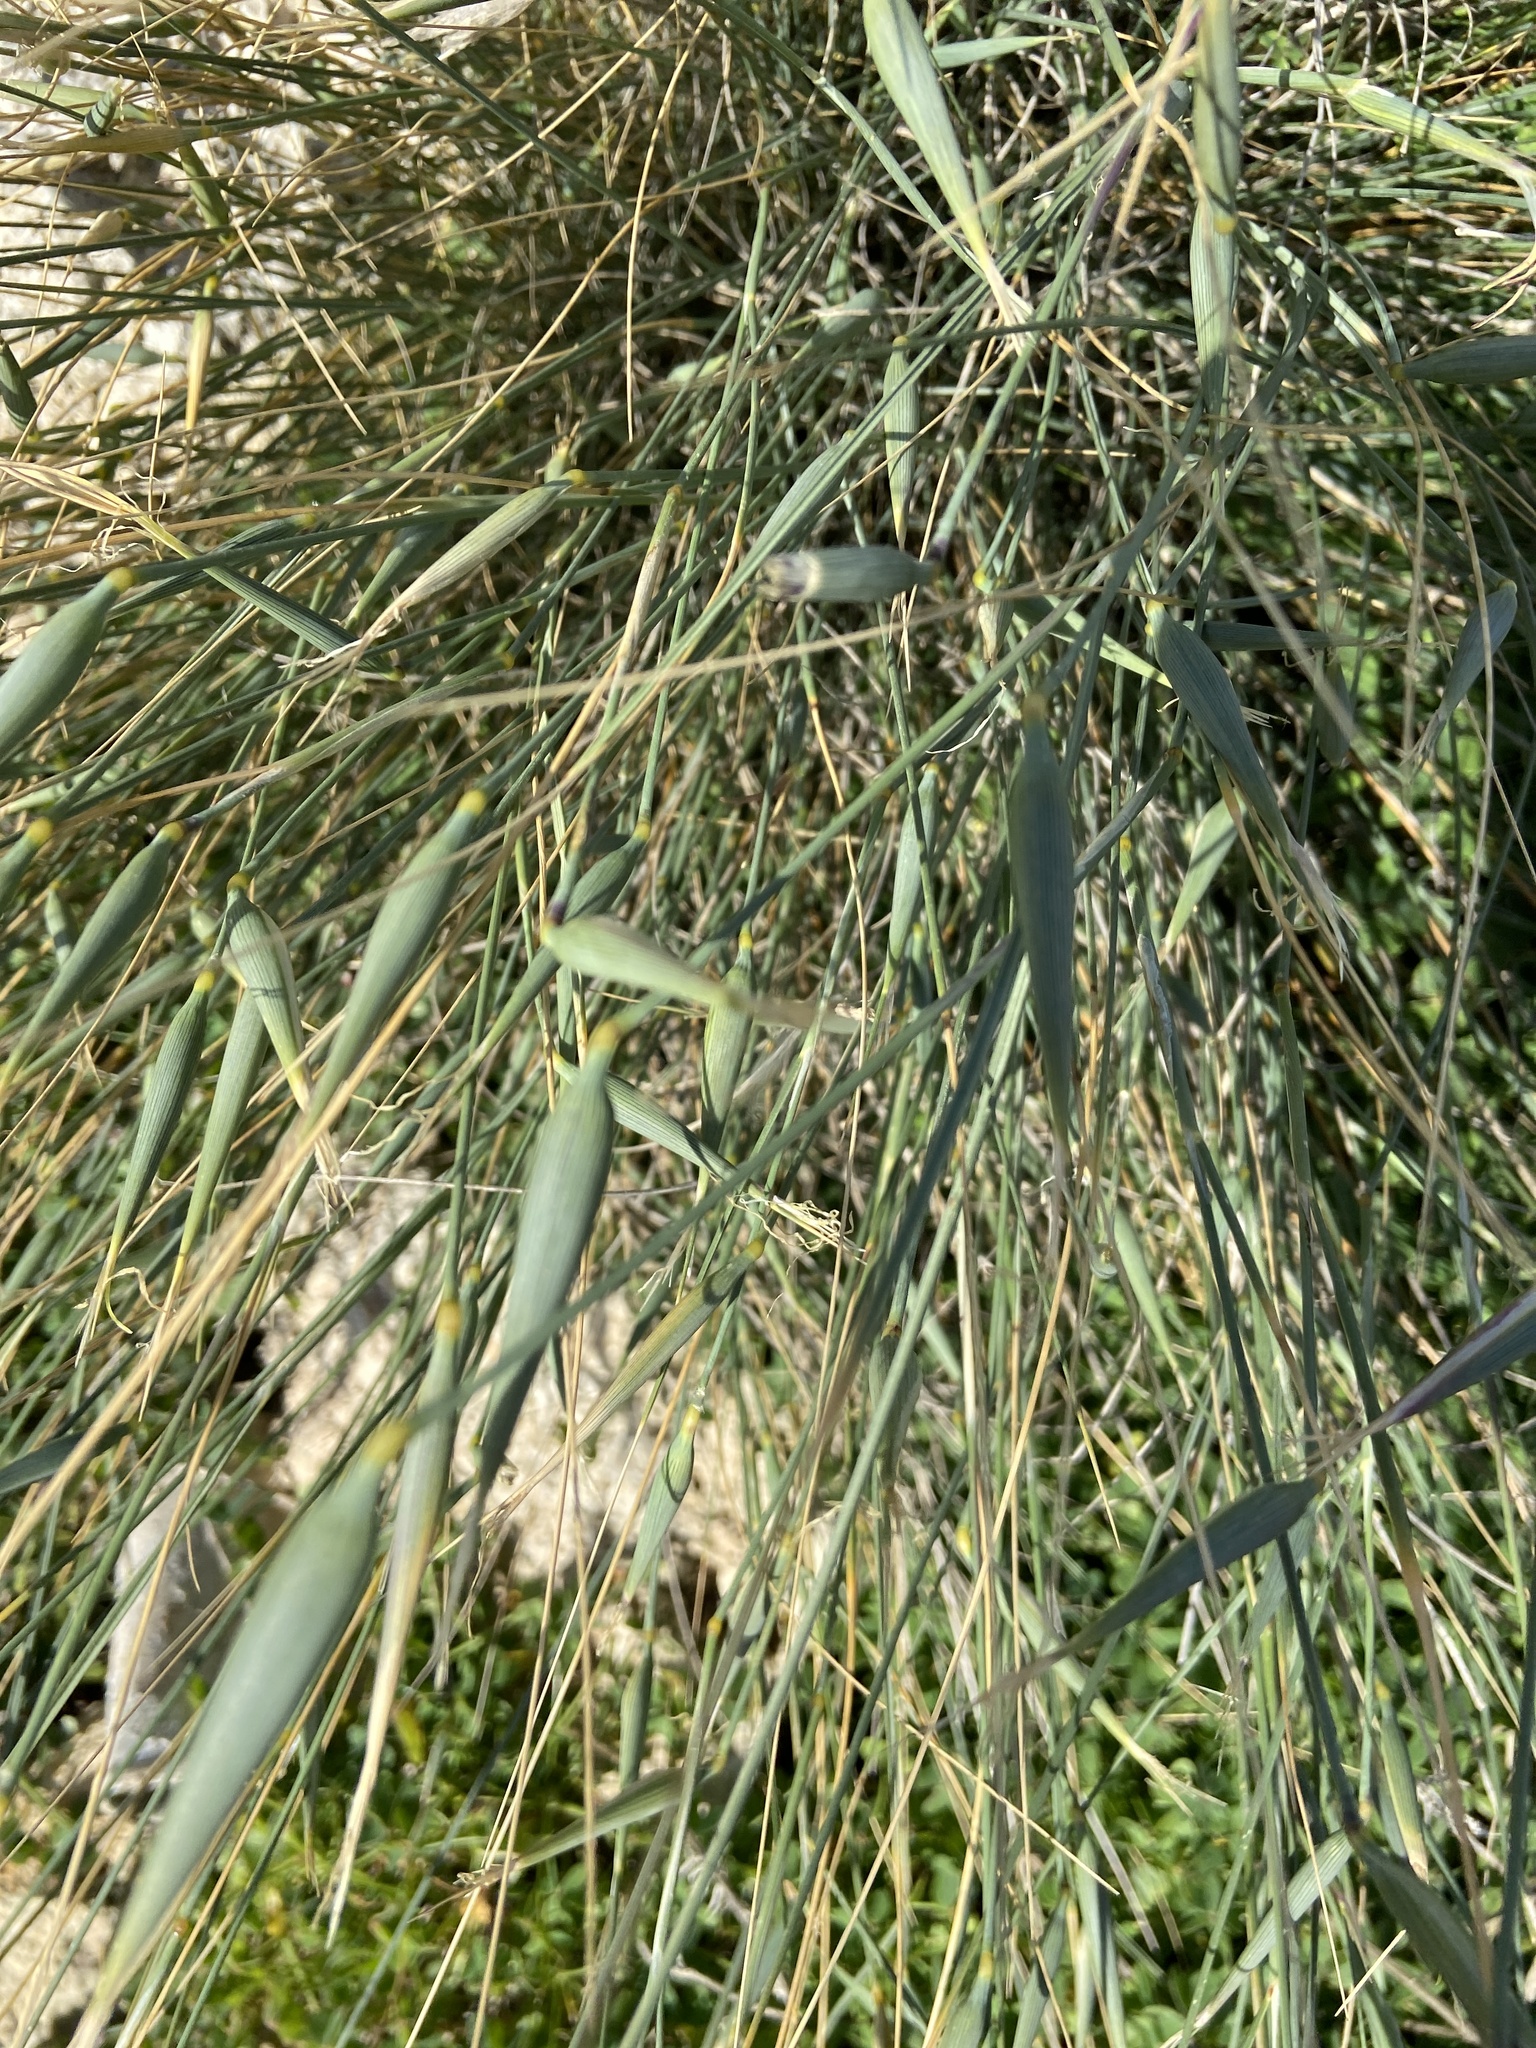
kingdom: Plantae
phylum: Tracheophyta
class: Liliopsida
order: Poales
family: Poaceae
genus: Lygeum
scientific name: Lygeum spartum
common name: Albardine
